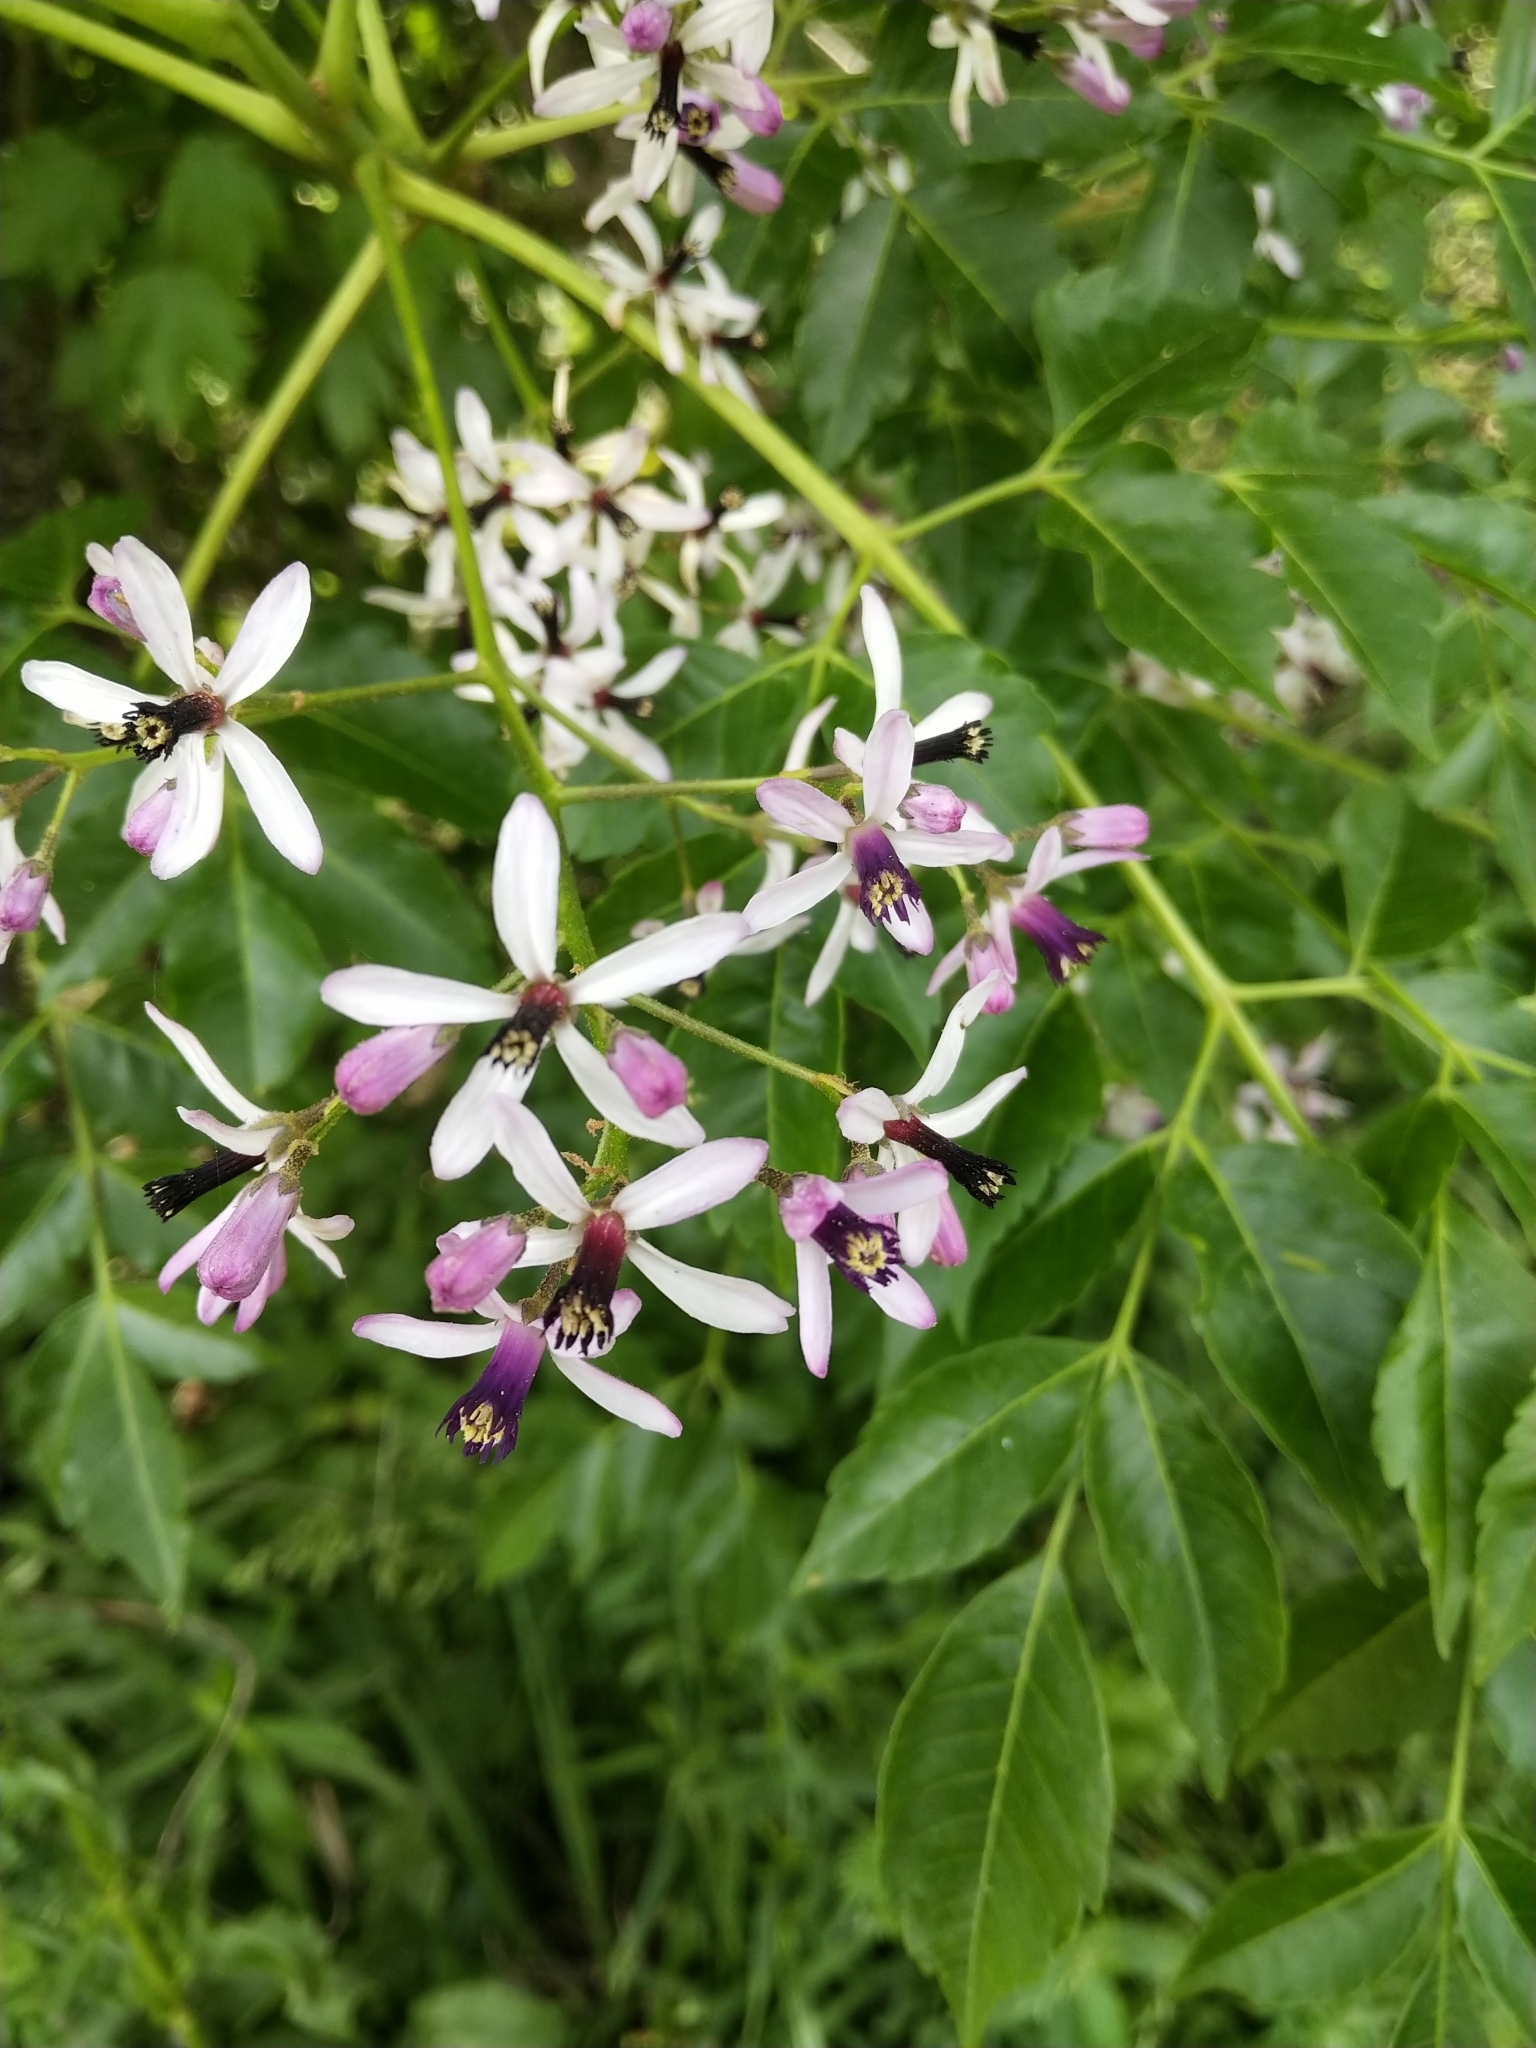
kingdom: Plantae
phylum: Tracheophyta
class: Magnoliopsida
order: Sapindales
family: Meliaceae
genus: Melia
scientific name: Melia azedarach
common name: Chinaberrytree
